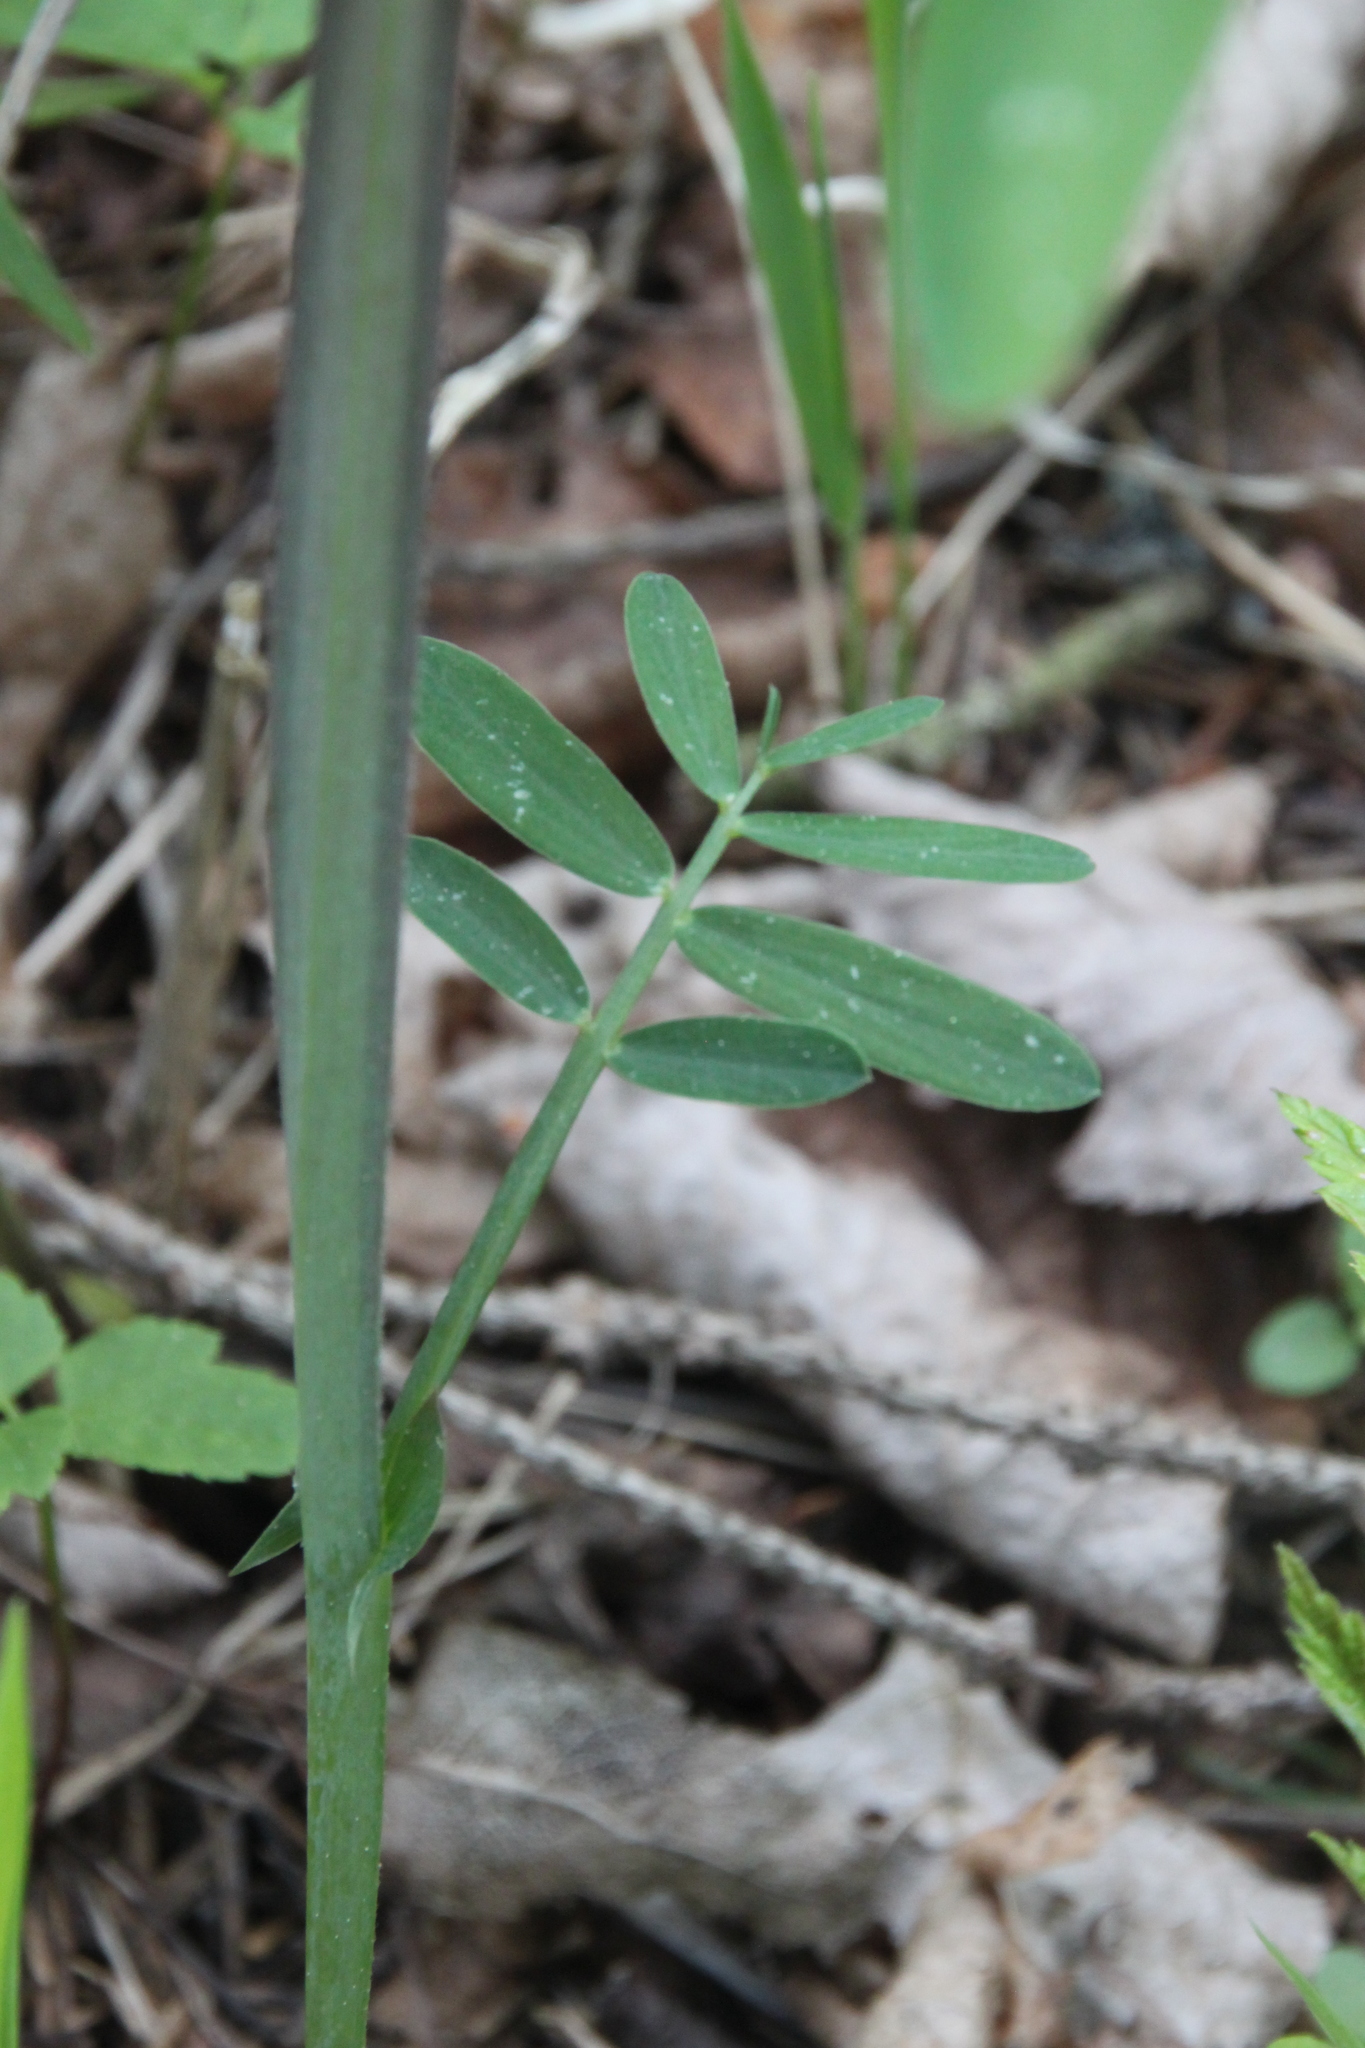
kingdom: Plantae
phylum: Tracheophyta
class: Magnoliopsida
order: Fabales
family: Fabaceae
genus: Lathyrus
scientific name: Lathyrus pisiformis
